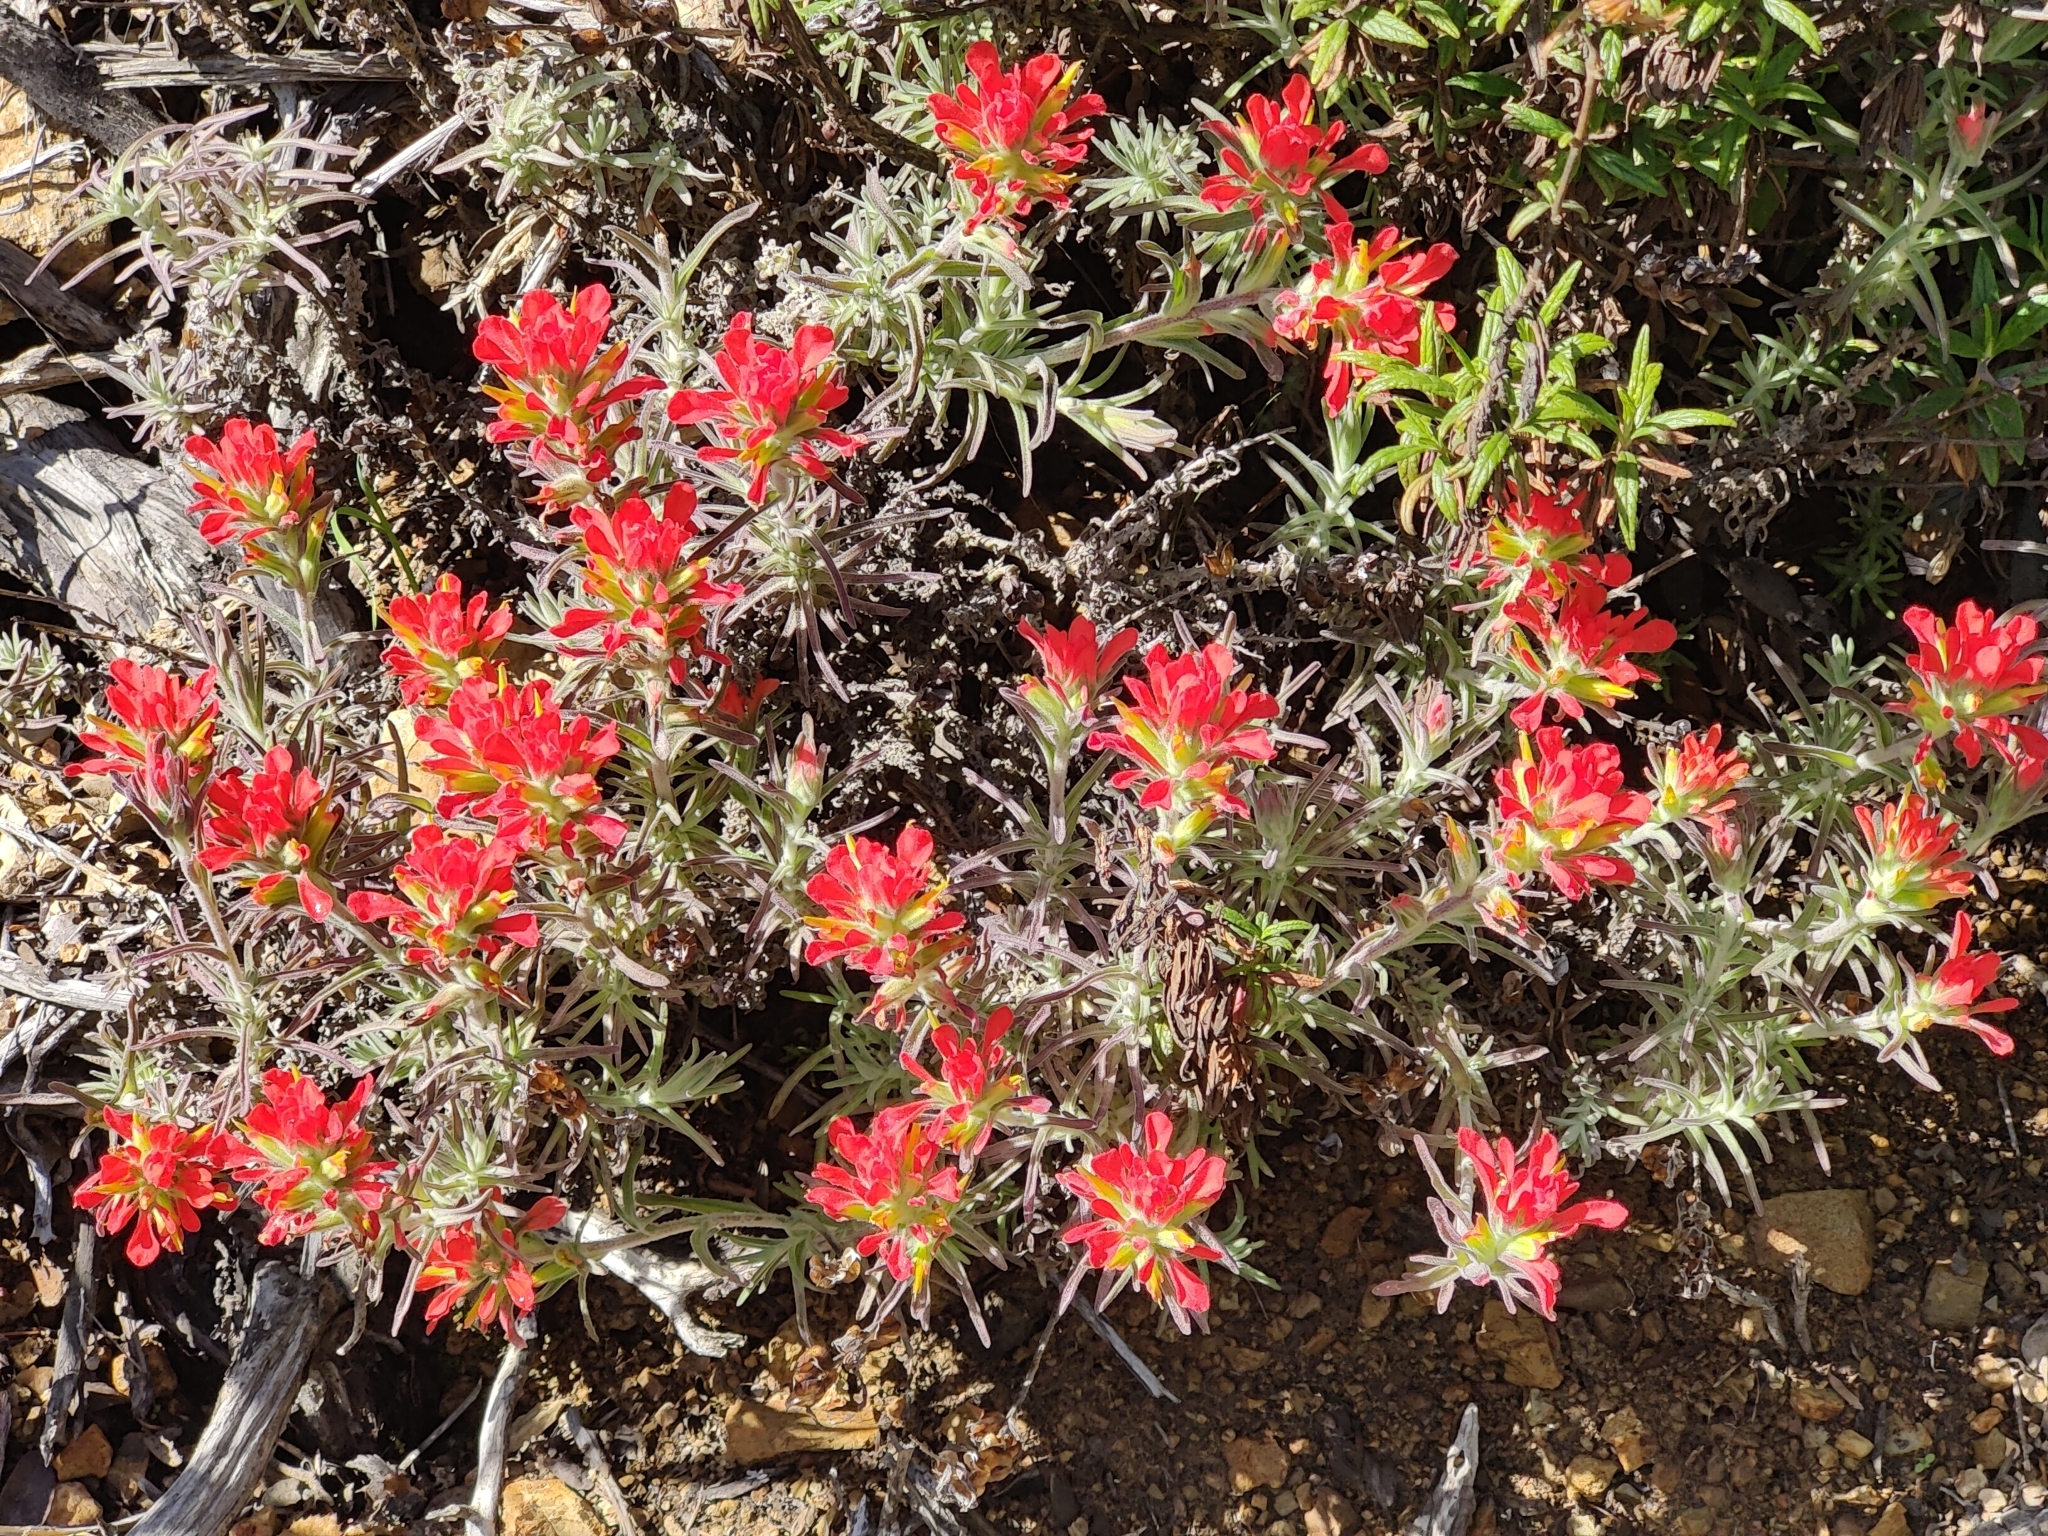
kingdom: Plantae
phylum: Tracheophyta
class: Magnoliopsida
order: Lamiales
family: Orobanchaceae
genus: Castilleja
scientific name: Castilleja foliolosa
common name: Woolly indian paintbrush
